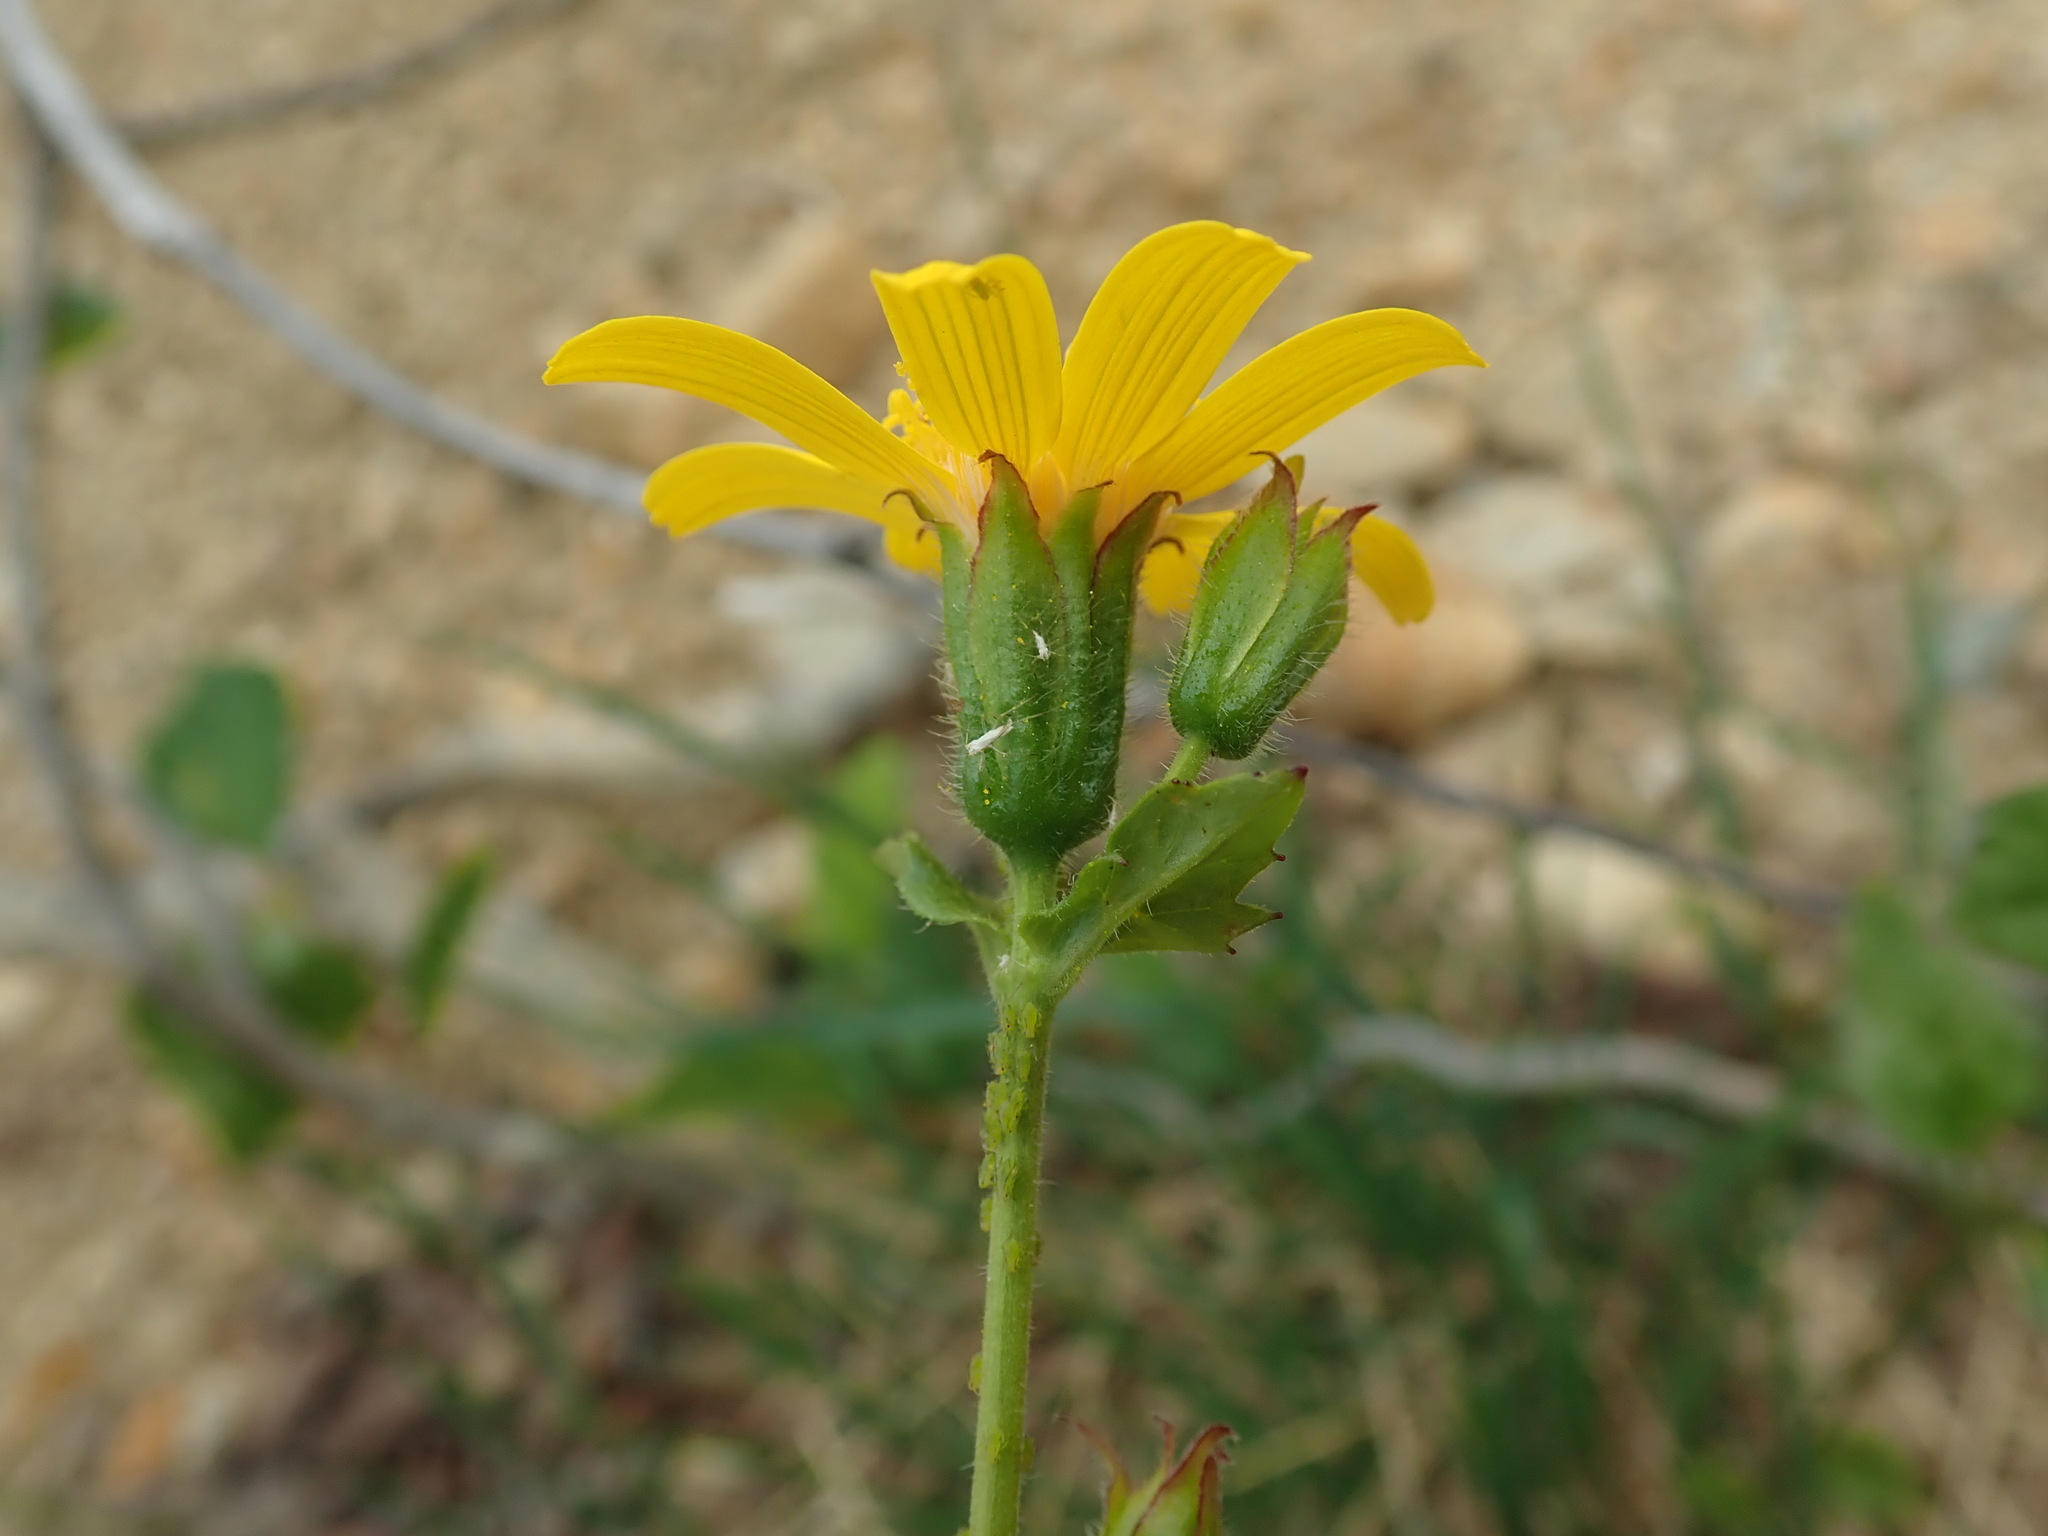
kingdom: Plantae
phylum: Tracheophyta
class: Magnoliopsida
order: Asterales
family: Asteraceae
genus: Arnica
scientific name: Arnica latifolia
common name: Arnica
